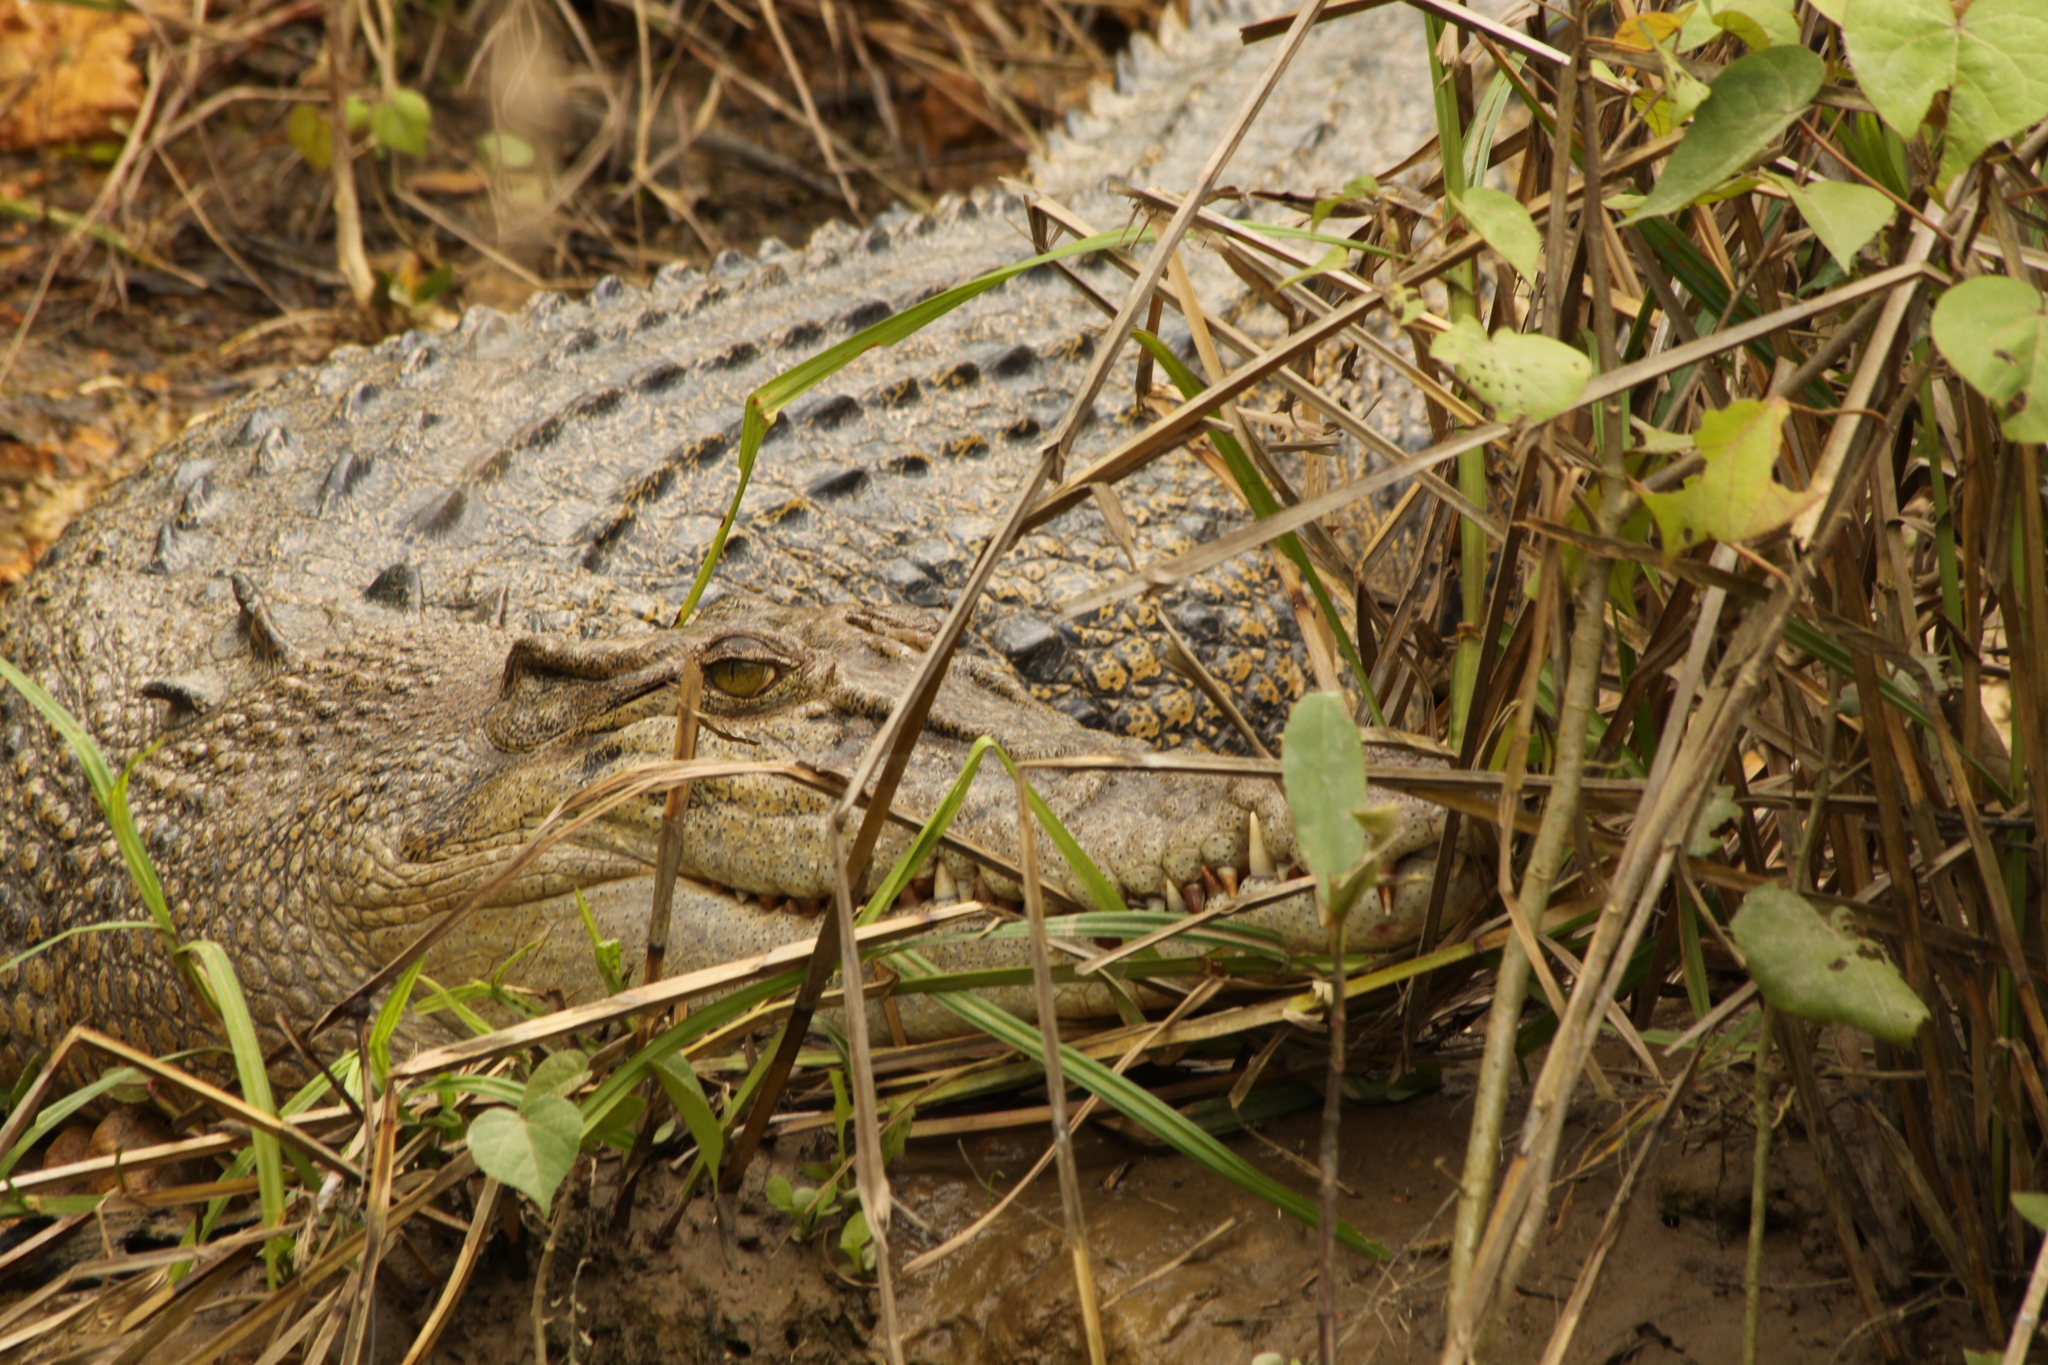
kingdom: Animalia
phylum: Chordata
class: Crocodylia
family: Crocodylidae
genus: Crocodylus
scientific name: Crocodylus porosus
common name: Saltwater crocodile
